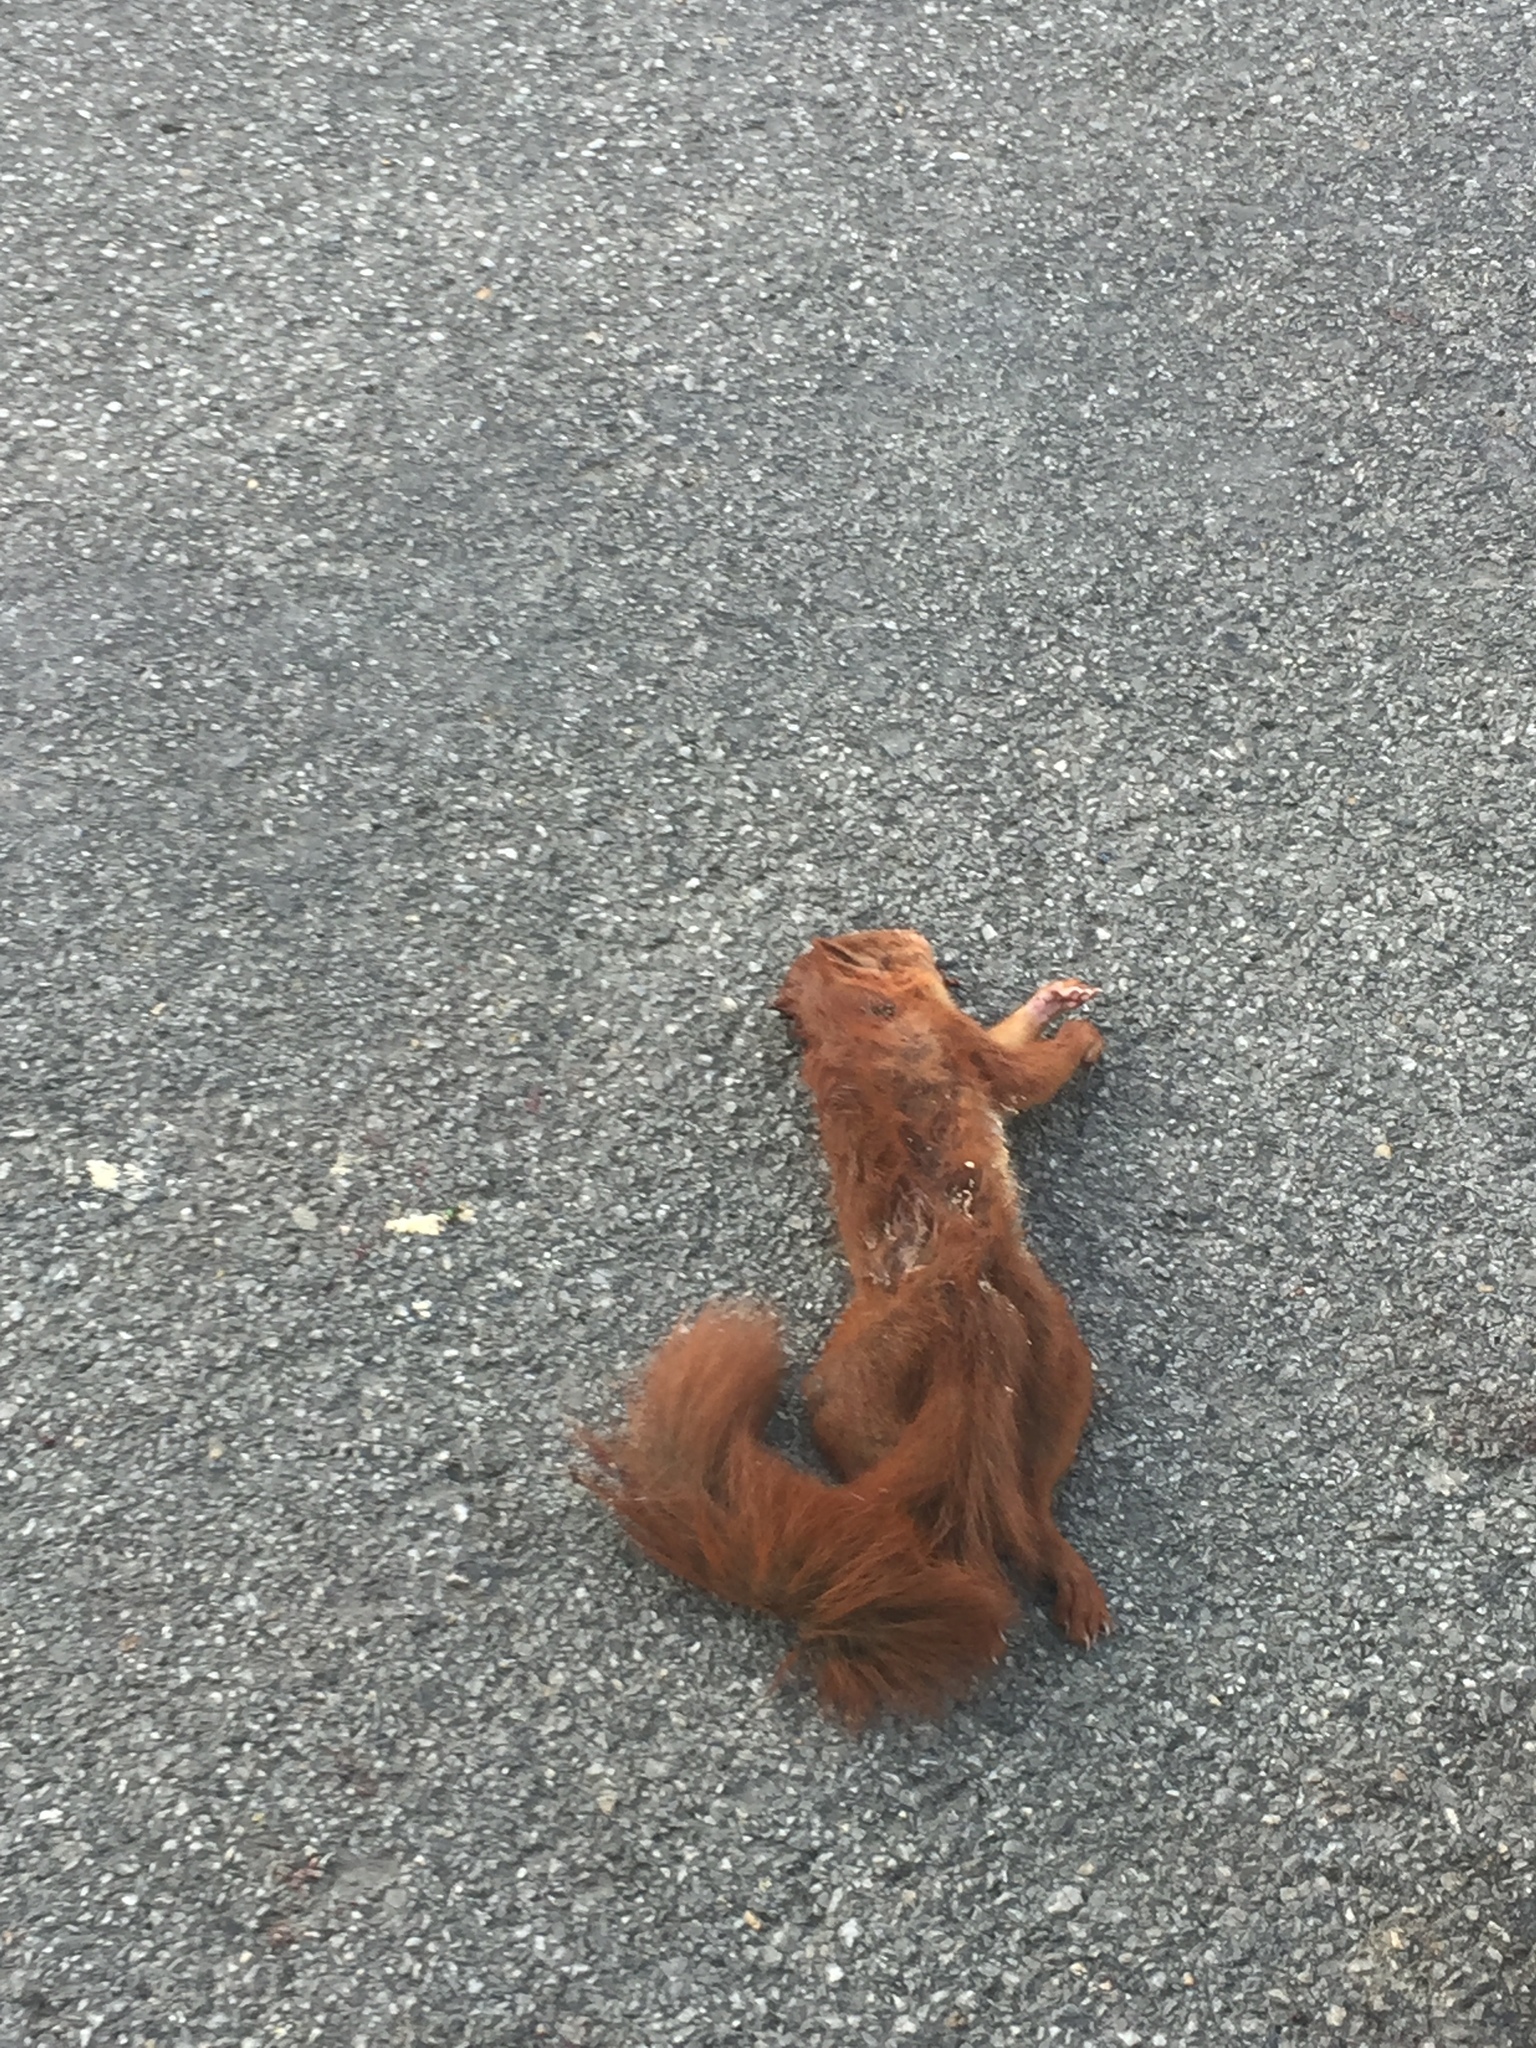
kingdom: Animalia
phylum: Chordata
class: Mammalia
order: Rodentia
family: Sciuridae
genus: Sciurus
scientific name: Sciurus vulgaris
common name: Eurasian red squirrel
